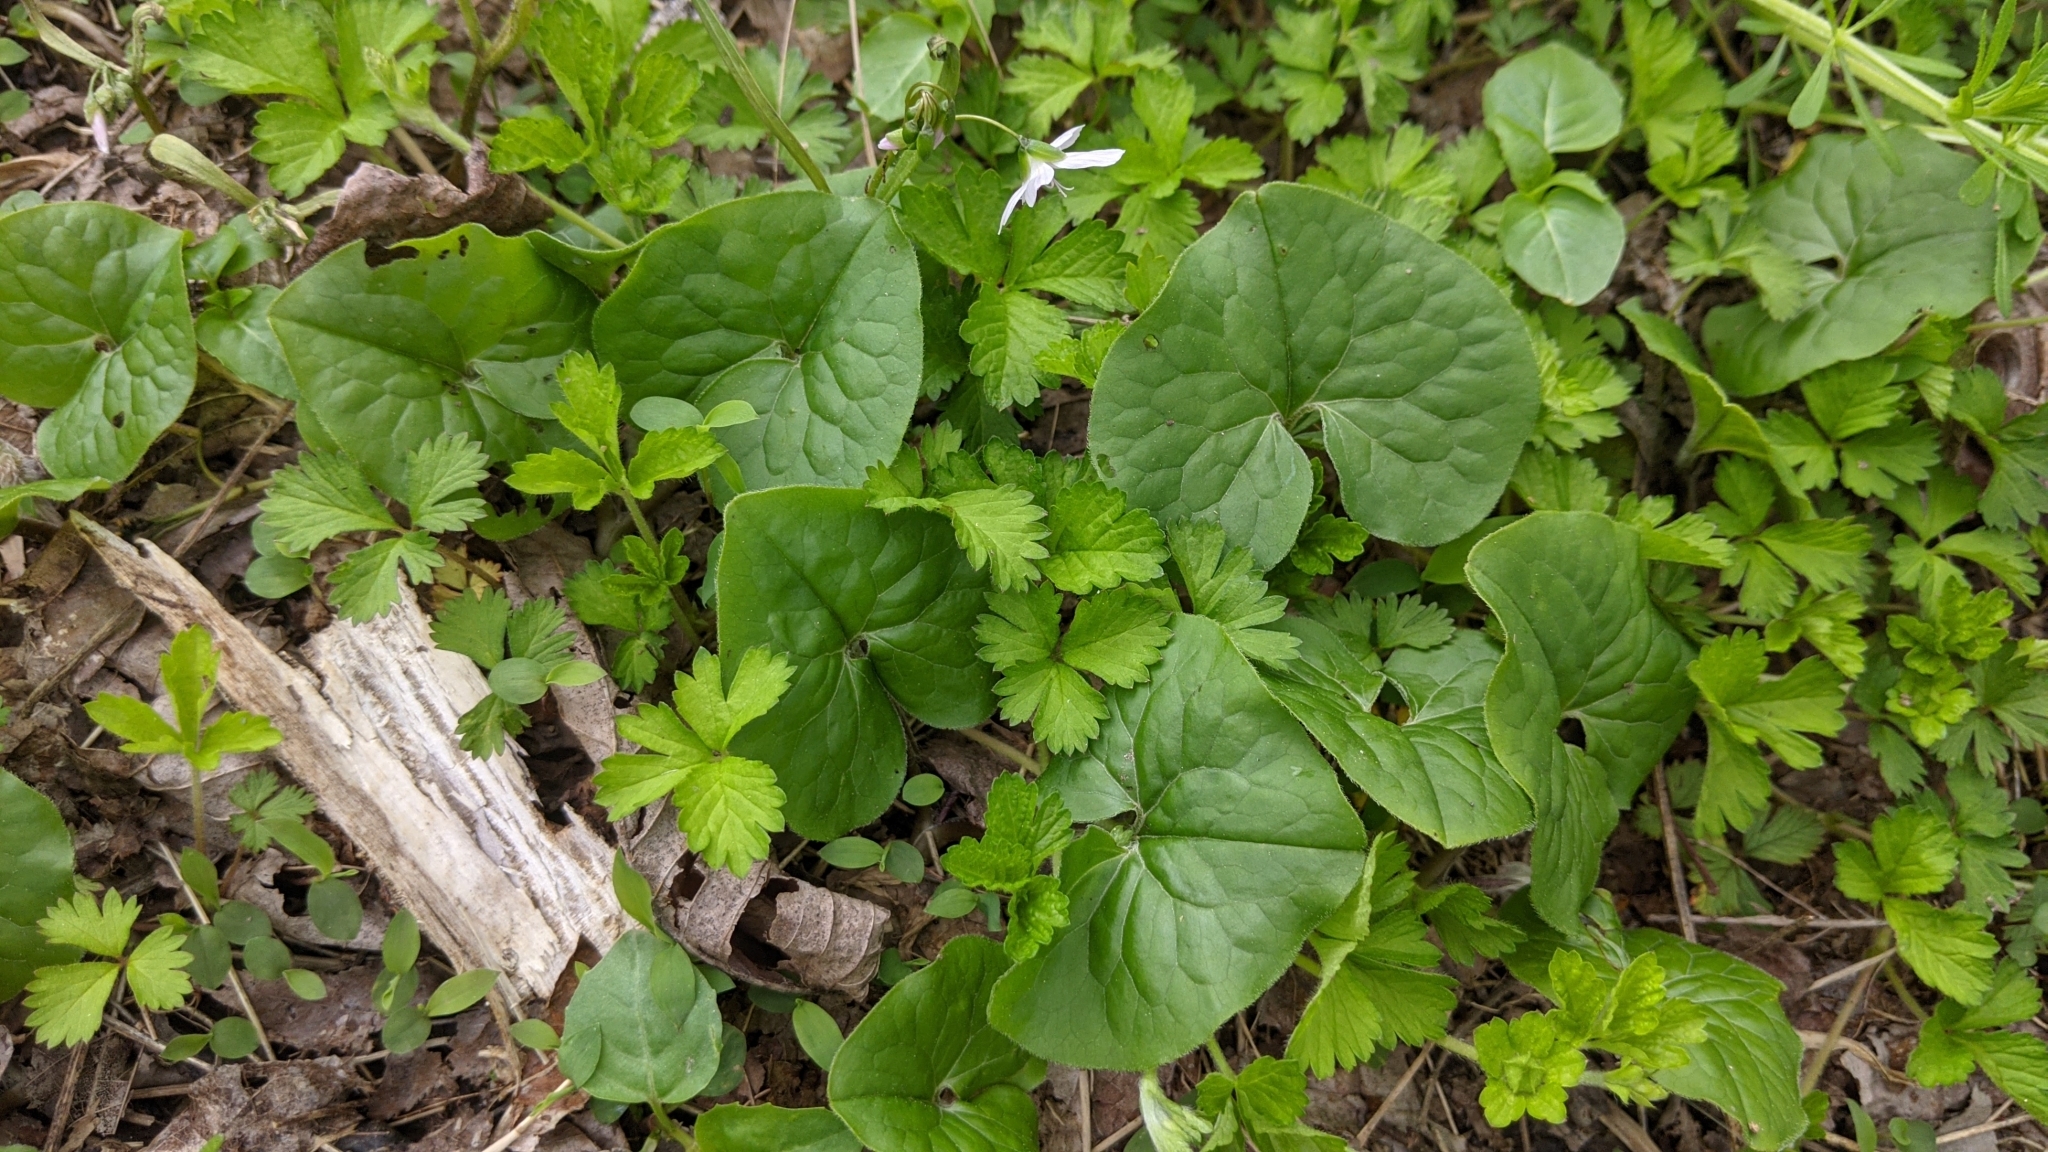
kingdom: Plantae
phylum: Tracheophyta
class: Magnoliopsida
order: Piperales
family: Aristolochiaceae
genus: Asarum
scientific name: Asarum canadense
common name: Wild ginger
